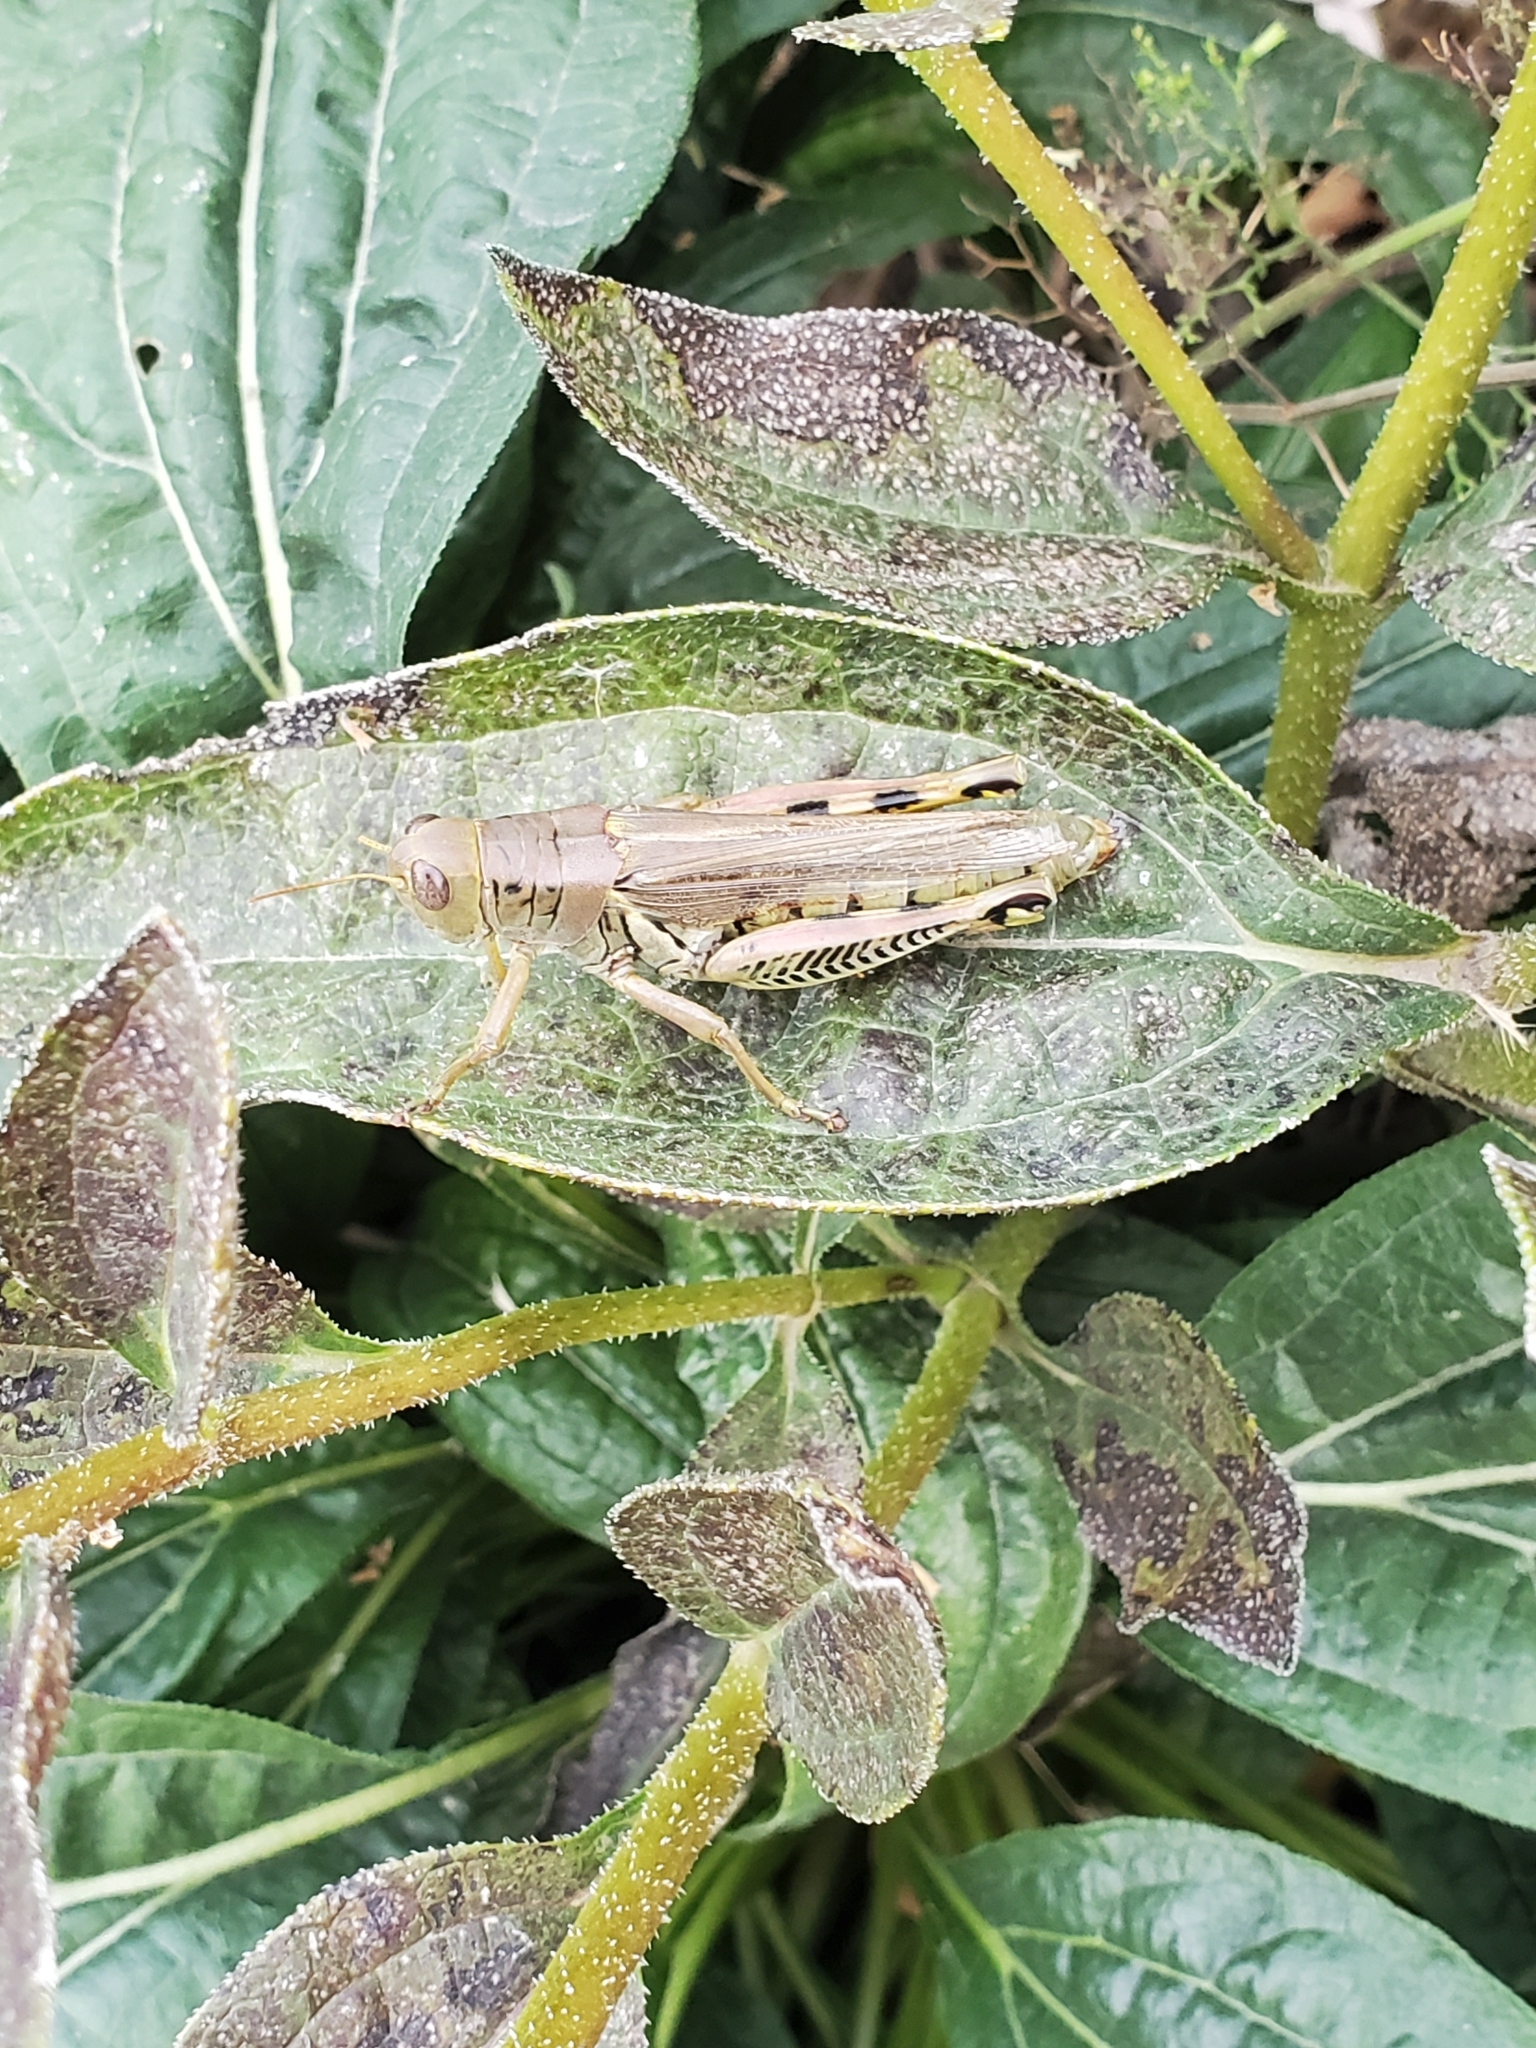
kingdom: Animalia
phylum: Arthropoda
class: Insecta
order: Orthoptera
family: Acrididae
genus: Melanoplus
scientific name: Melanoplus differentialis
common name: Differential grasshopper
